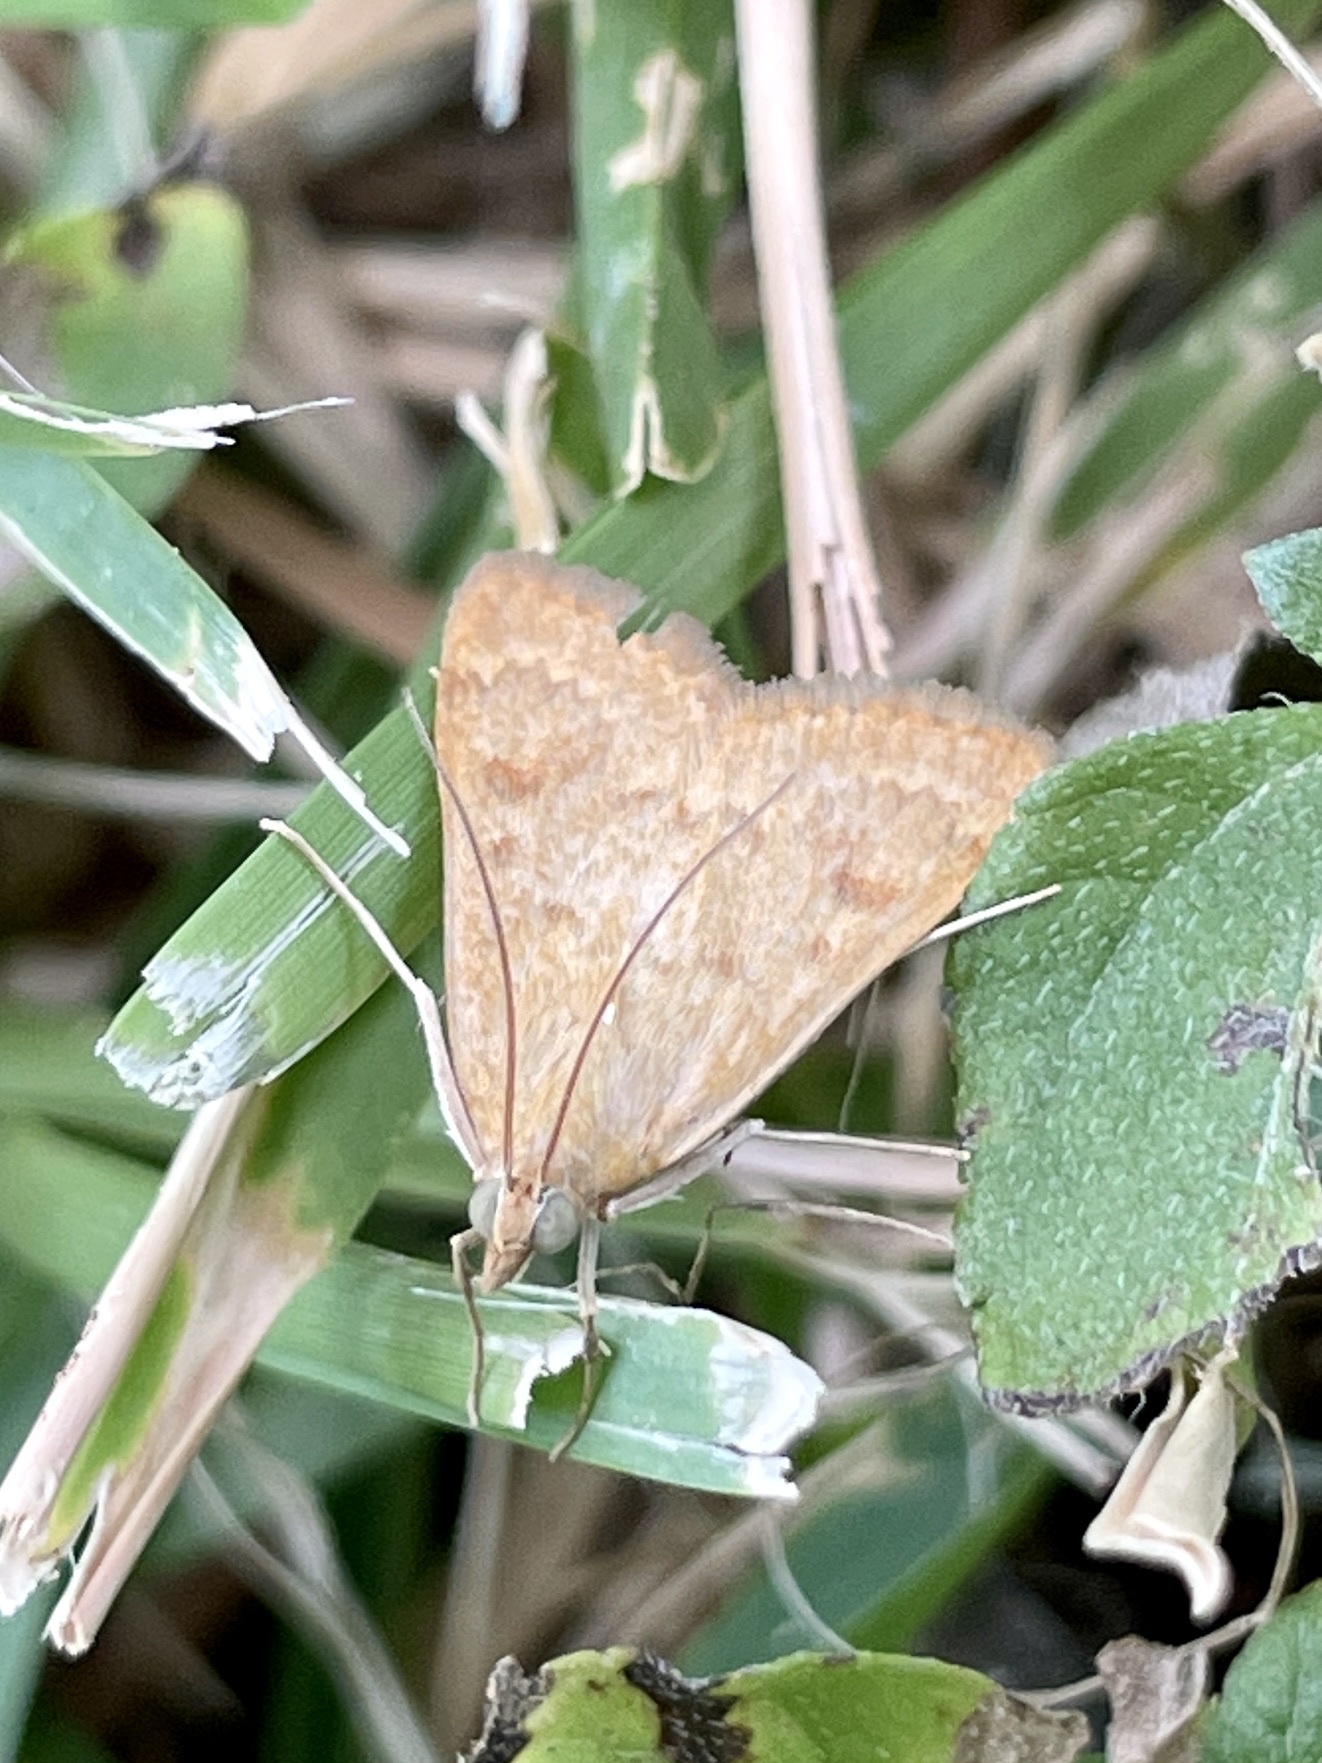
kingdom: Animalia
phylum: Arthropoda
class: Insecta
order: Lepidoptera
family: Crambidae
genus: Achyra
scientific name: Achyra rantalis
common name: Garden webworm
